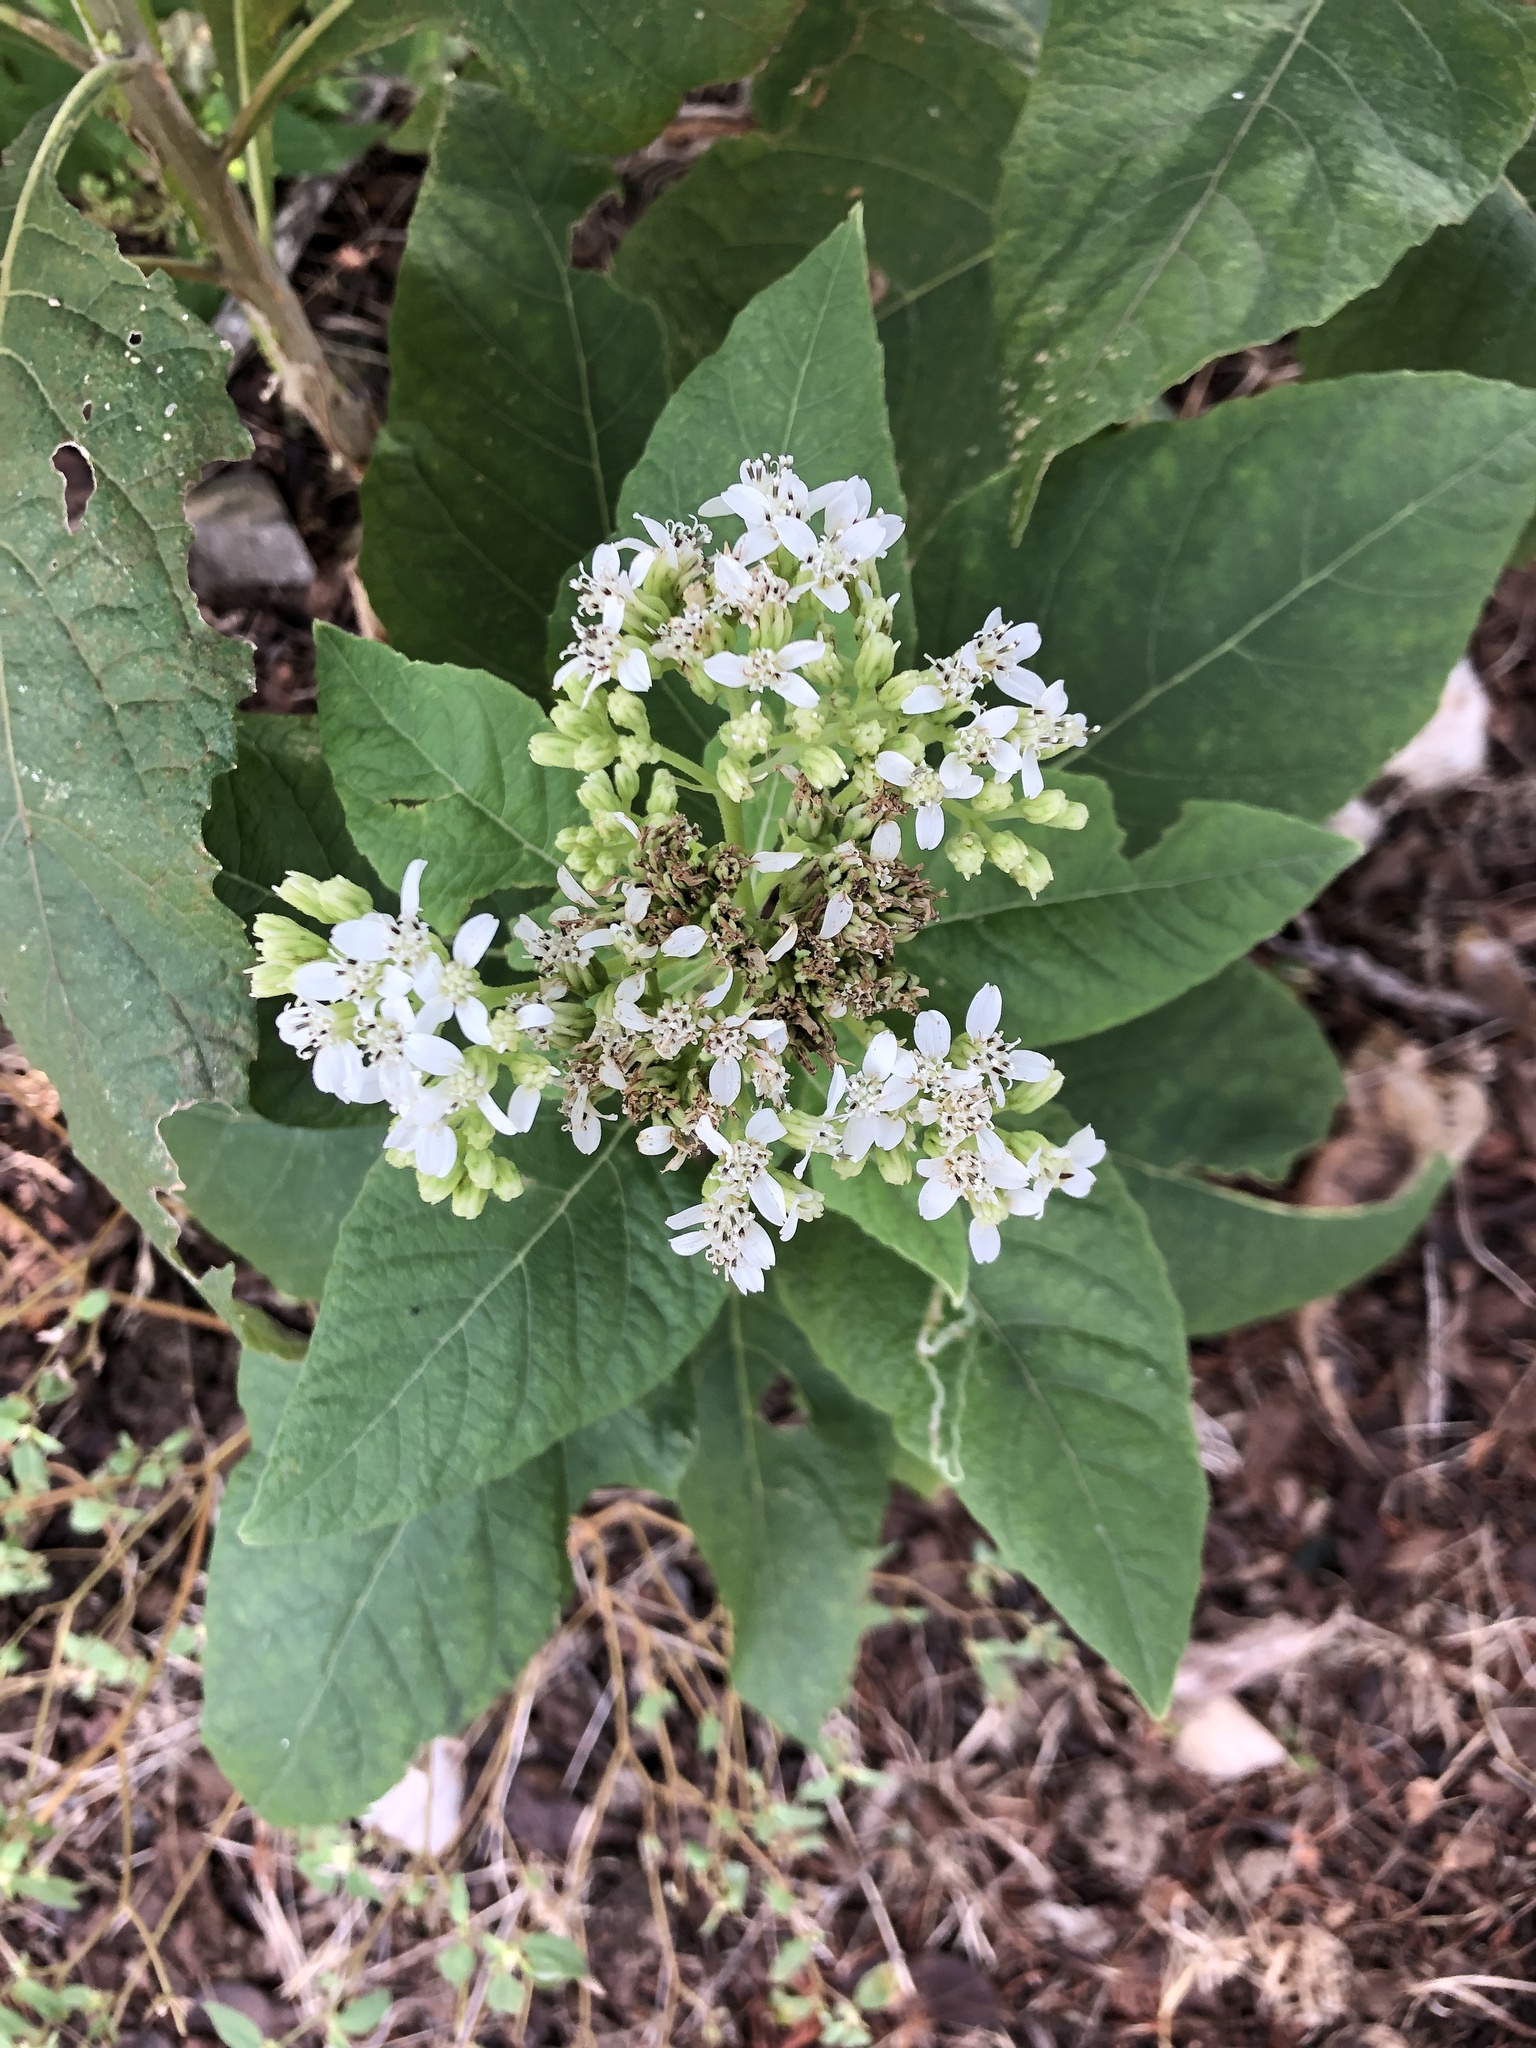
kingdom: Plantae
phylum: Tracheophyta
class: Magnoliopsida
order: Asterales
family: Asteraceae
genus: Verbesina
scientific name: Verbesina virginica
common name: Frostweed
